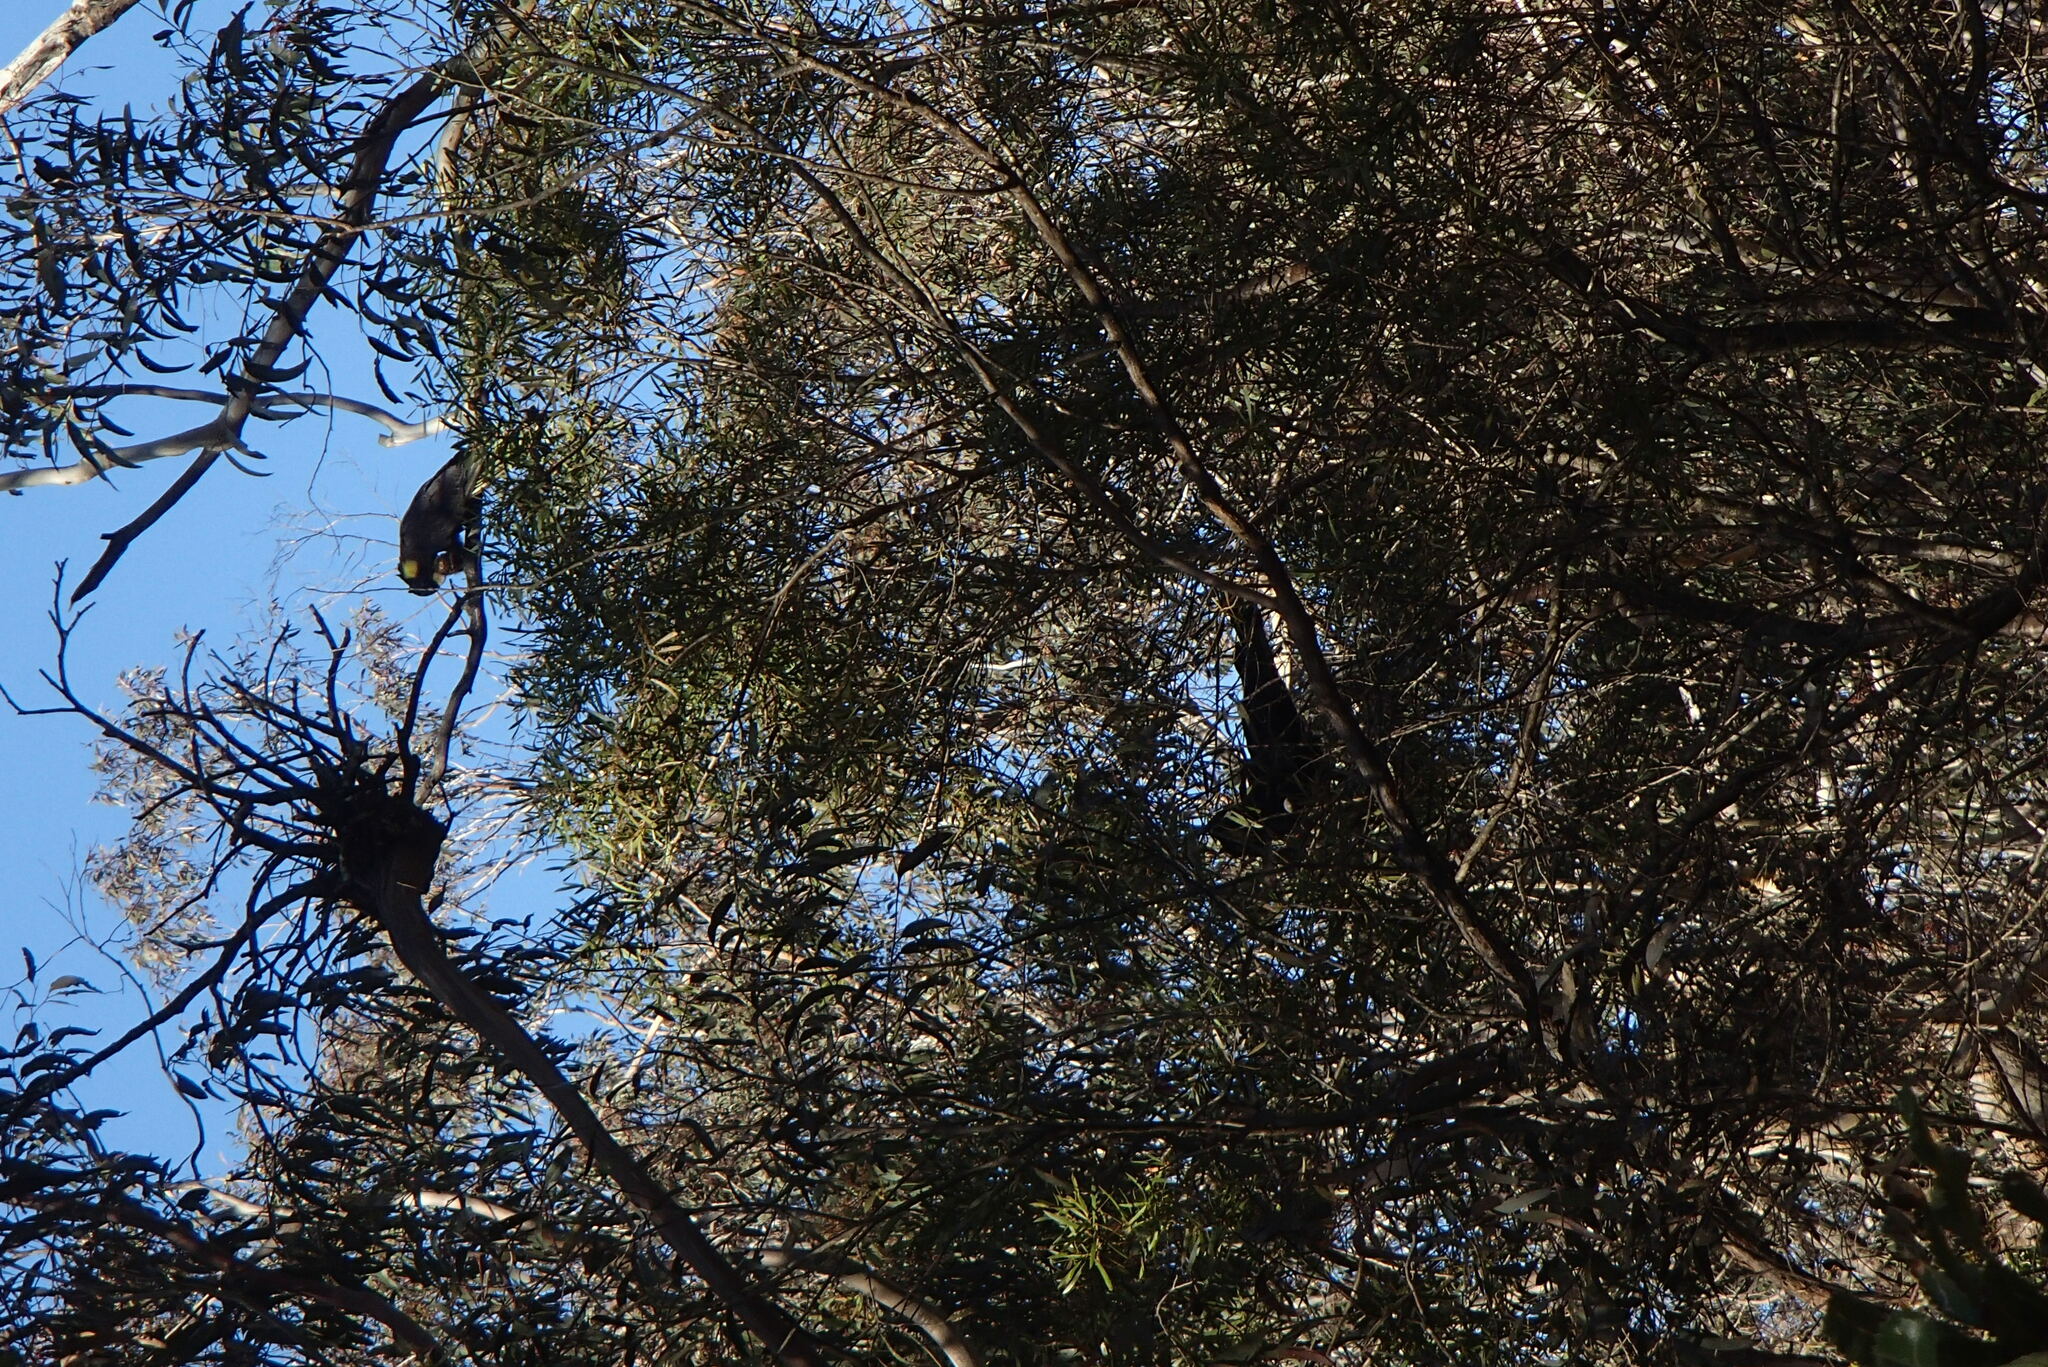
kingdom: Animalia
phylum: Chordata
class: Aves
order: Psittaciformes
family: Cacatuidae
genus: Zanda
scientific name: Zanda funerea
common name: Yellow-tailed black-cockatoo
